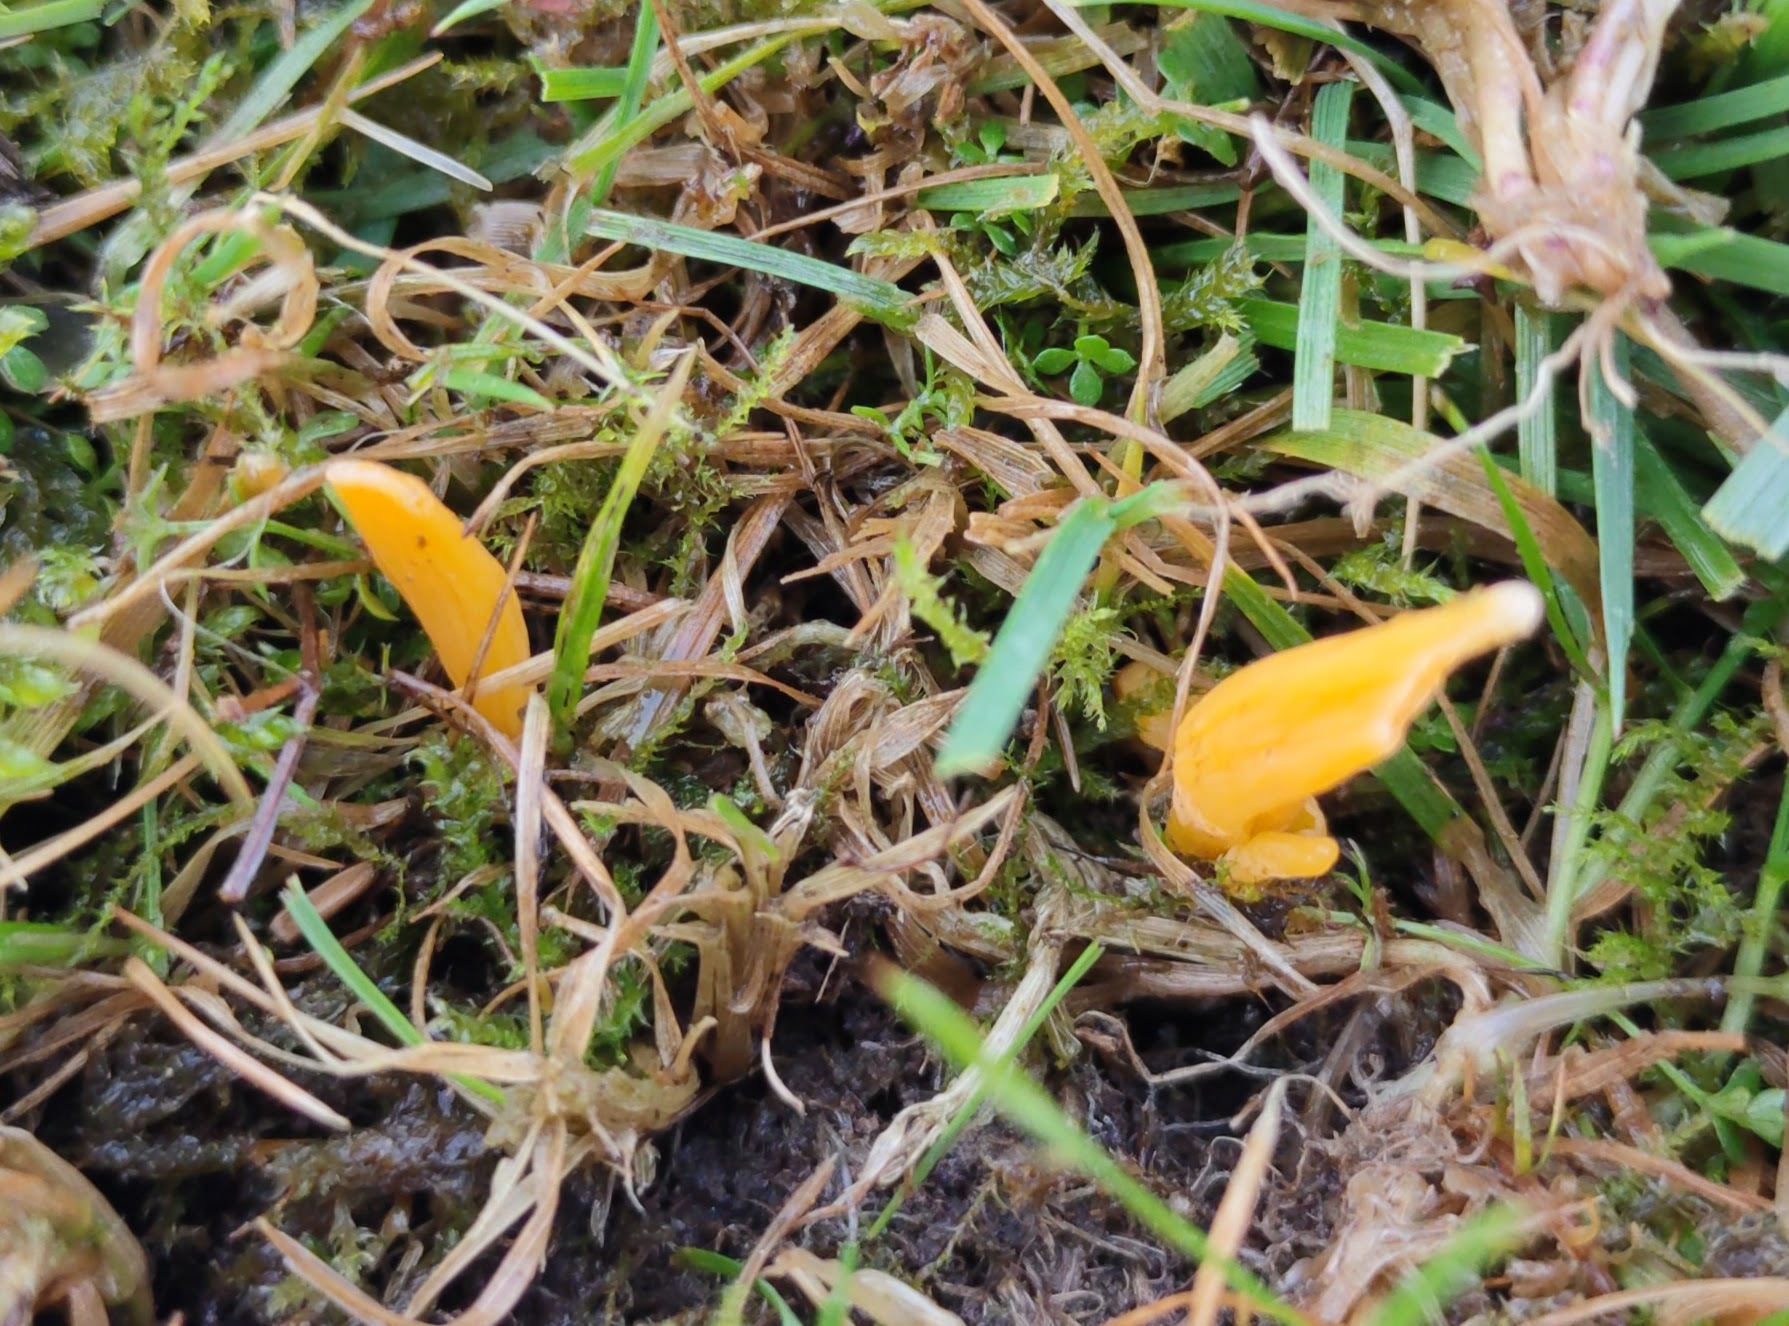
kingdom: Fungi
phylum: Basidiomycota
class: Agaricomycetes
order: Agaricales
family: Clavariaceae
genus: Clavulinopsis
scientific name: Clavulinopsis luteoalba
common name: Apricot club
